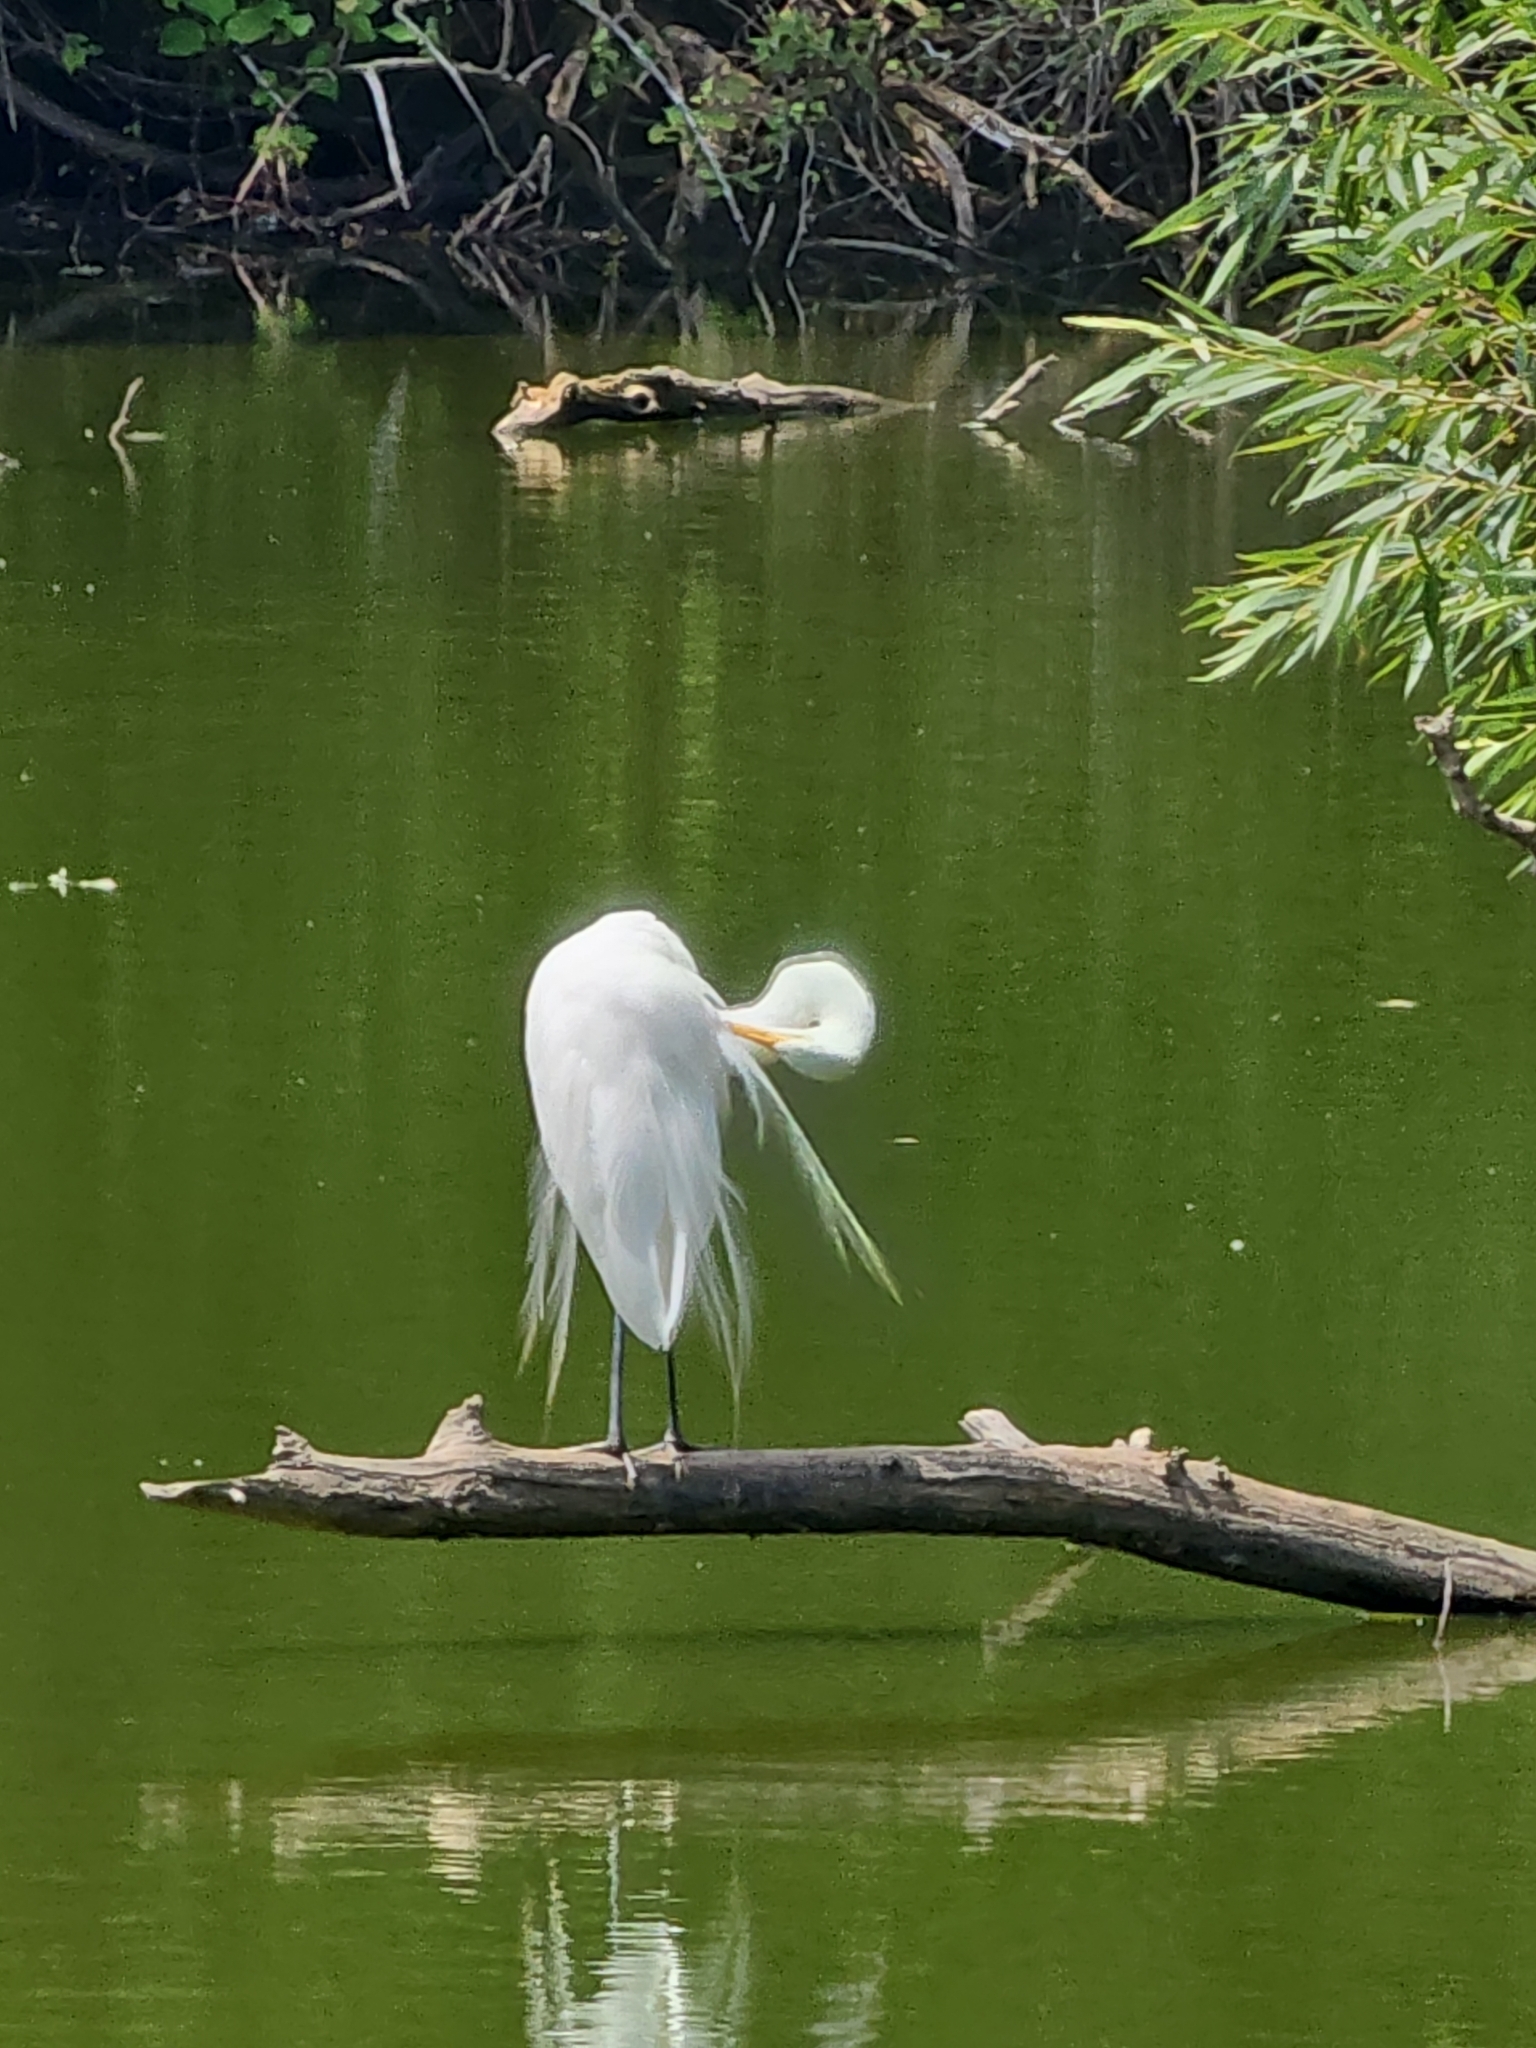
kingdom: Animalia
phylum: Chordata
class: Aves
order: Pelecaniformes
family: Ardeidae
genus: Ardea
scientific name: Ardea alba
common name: Great egret
